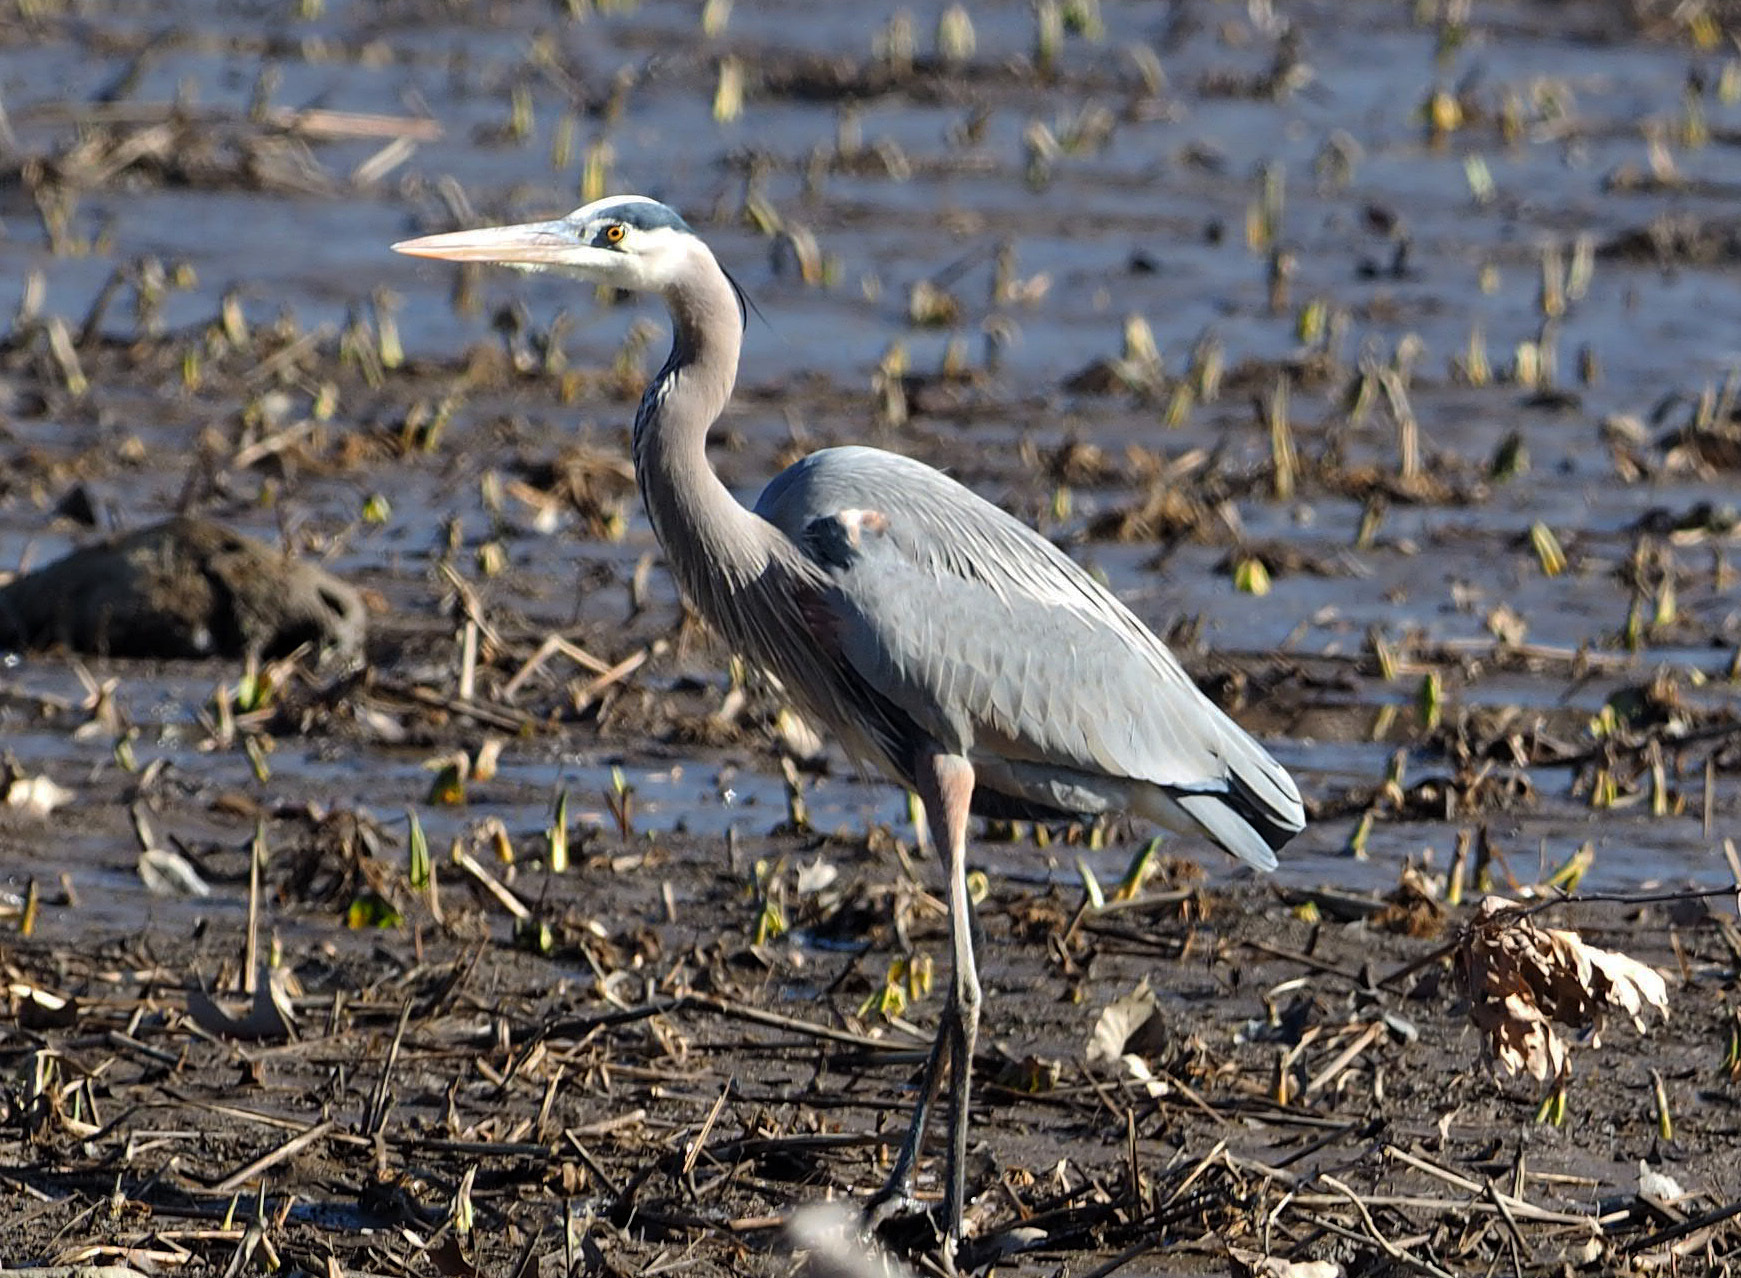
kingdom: Animalia
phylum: Chordata
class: Aves
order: Pelecaniformes
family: Ardeidae
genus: Ardea
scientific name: Ardea herodias
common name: Great blue heron
